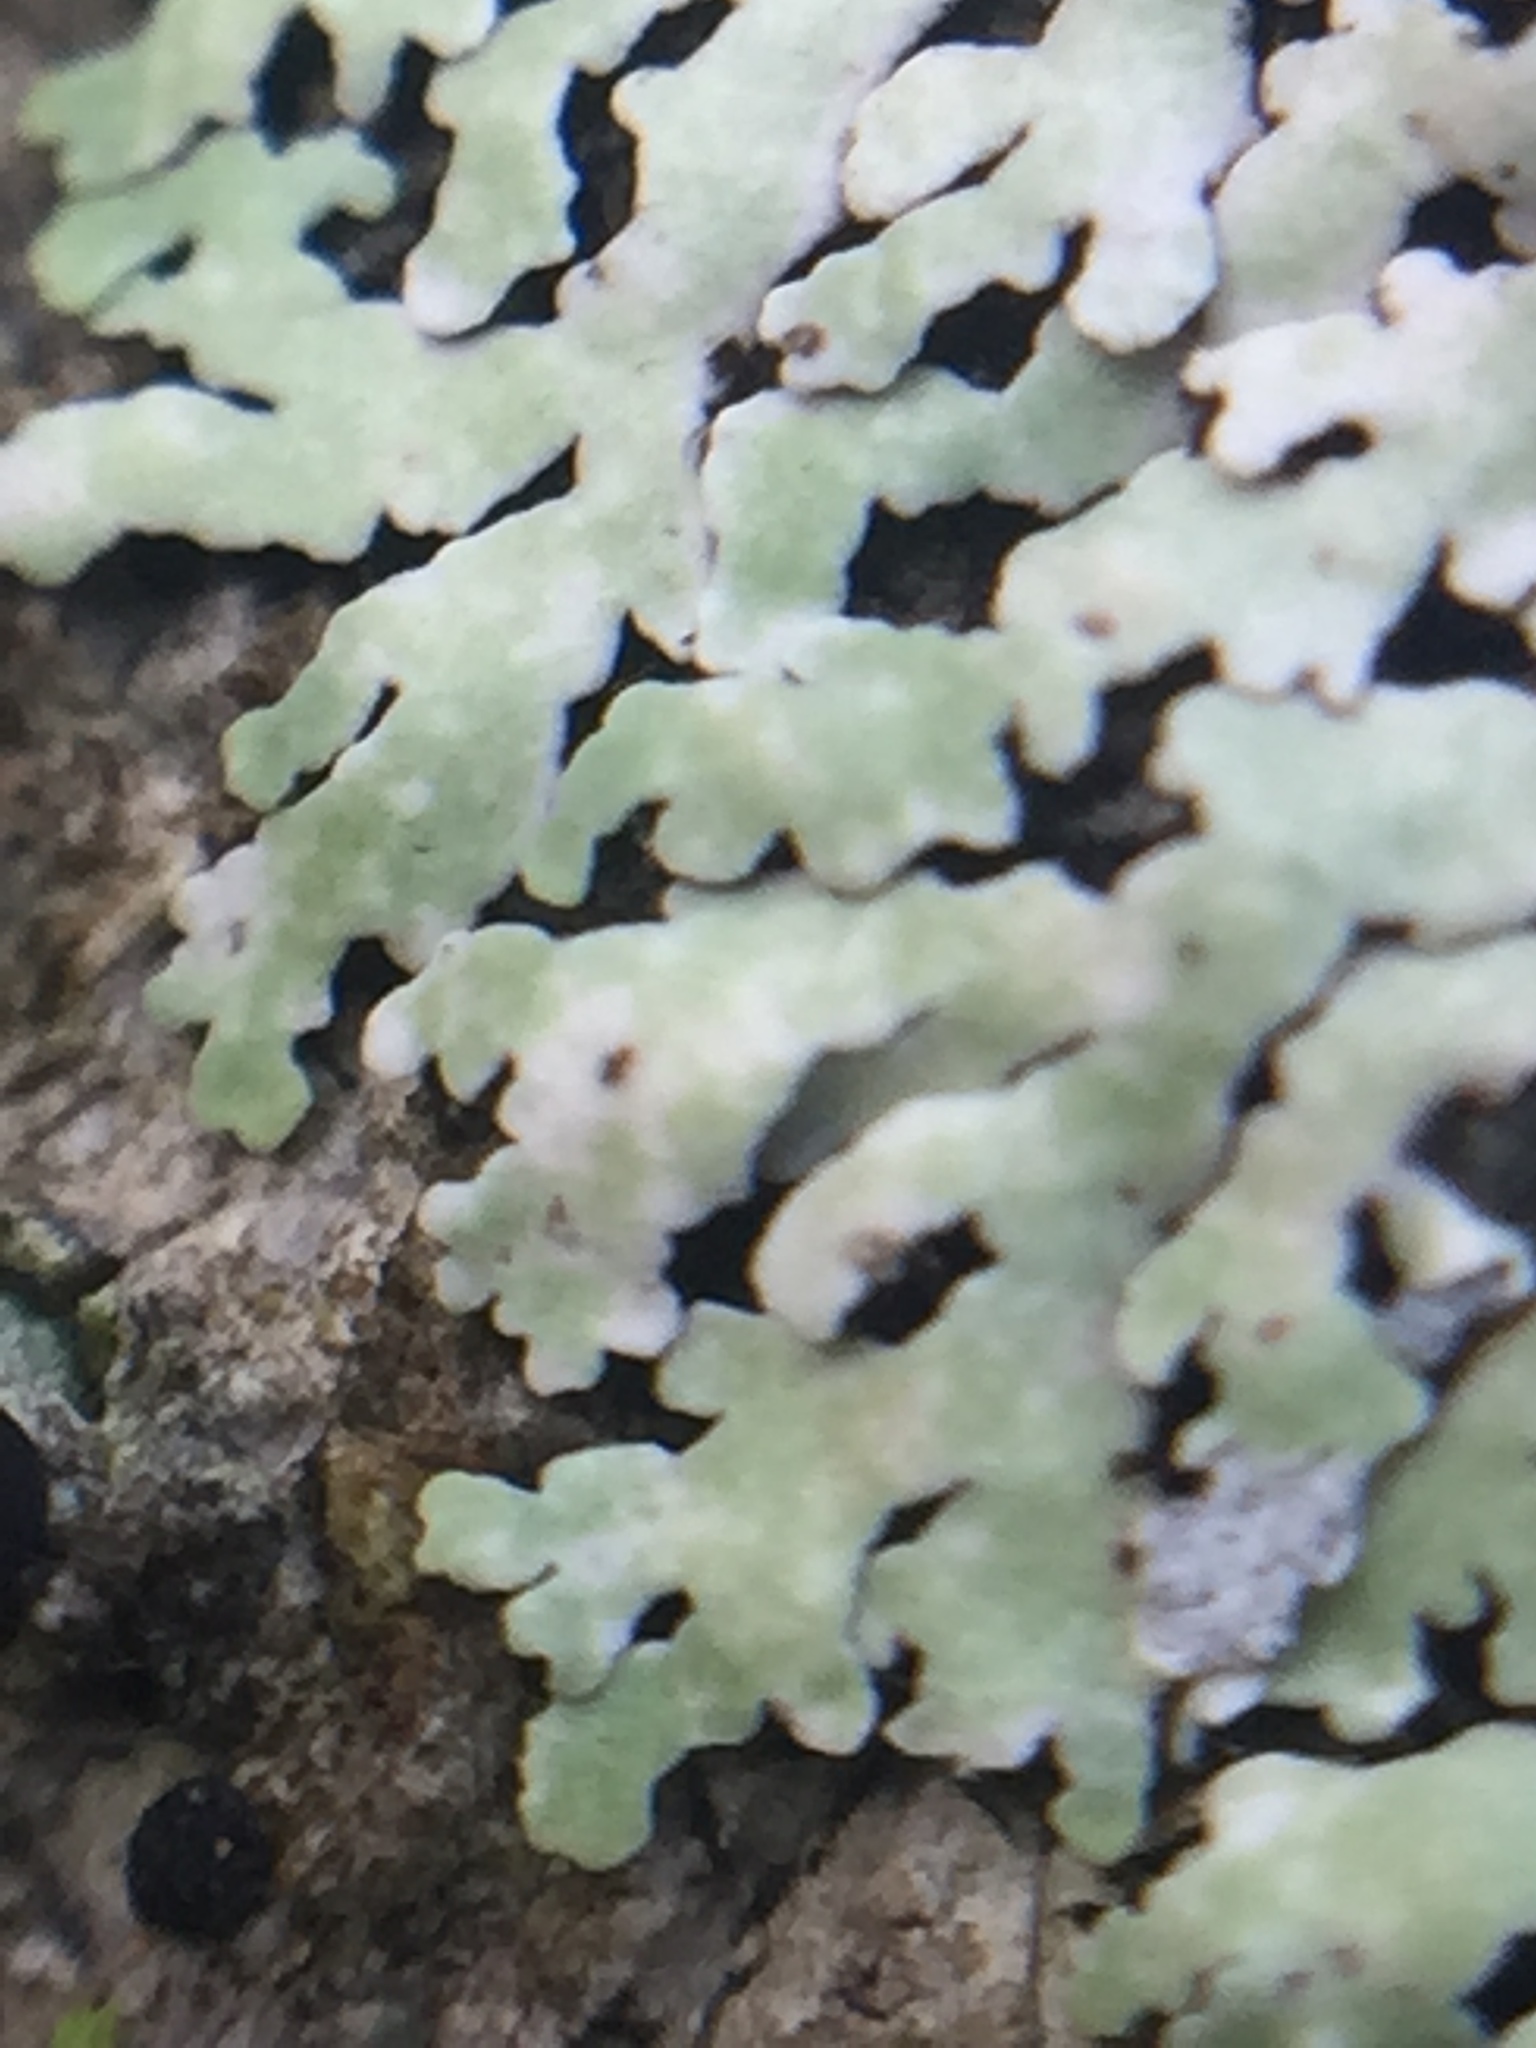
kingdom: Fungi
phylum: Ascomycota
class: Lecanoromycetes
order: Caliciales
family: Physciaceae
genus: Physcia
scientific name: Physcia erumpens
